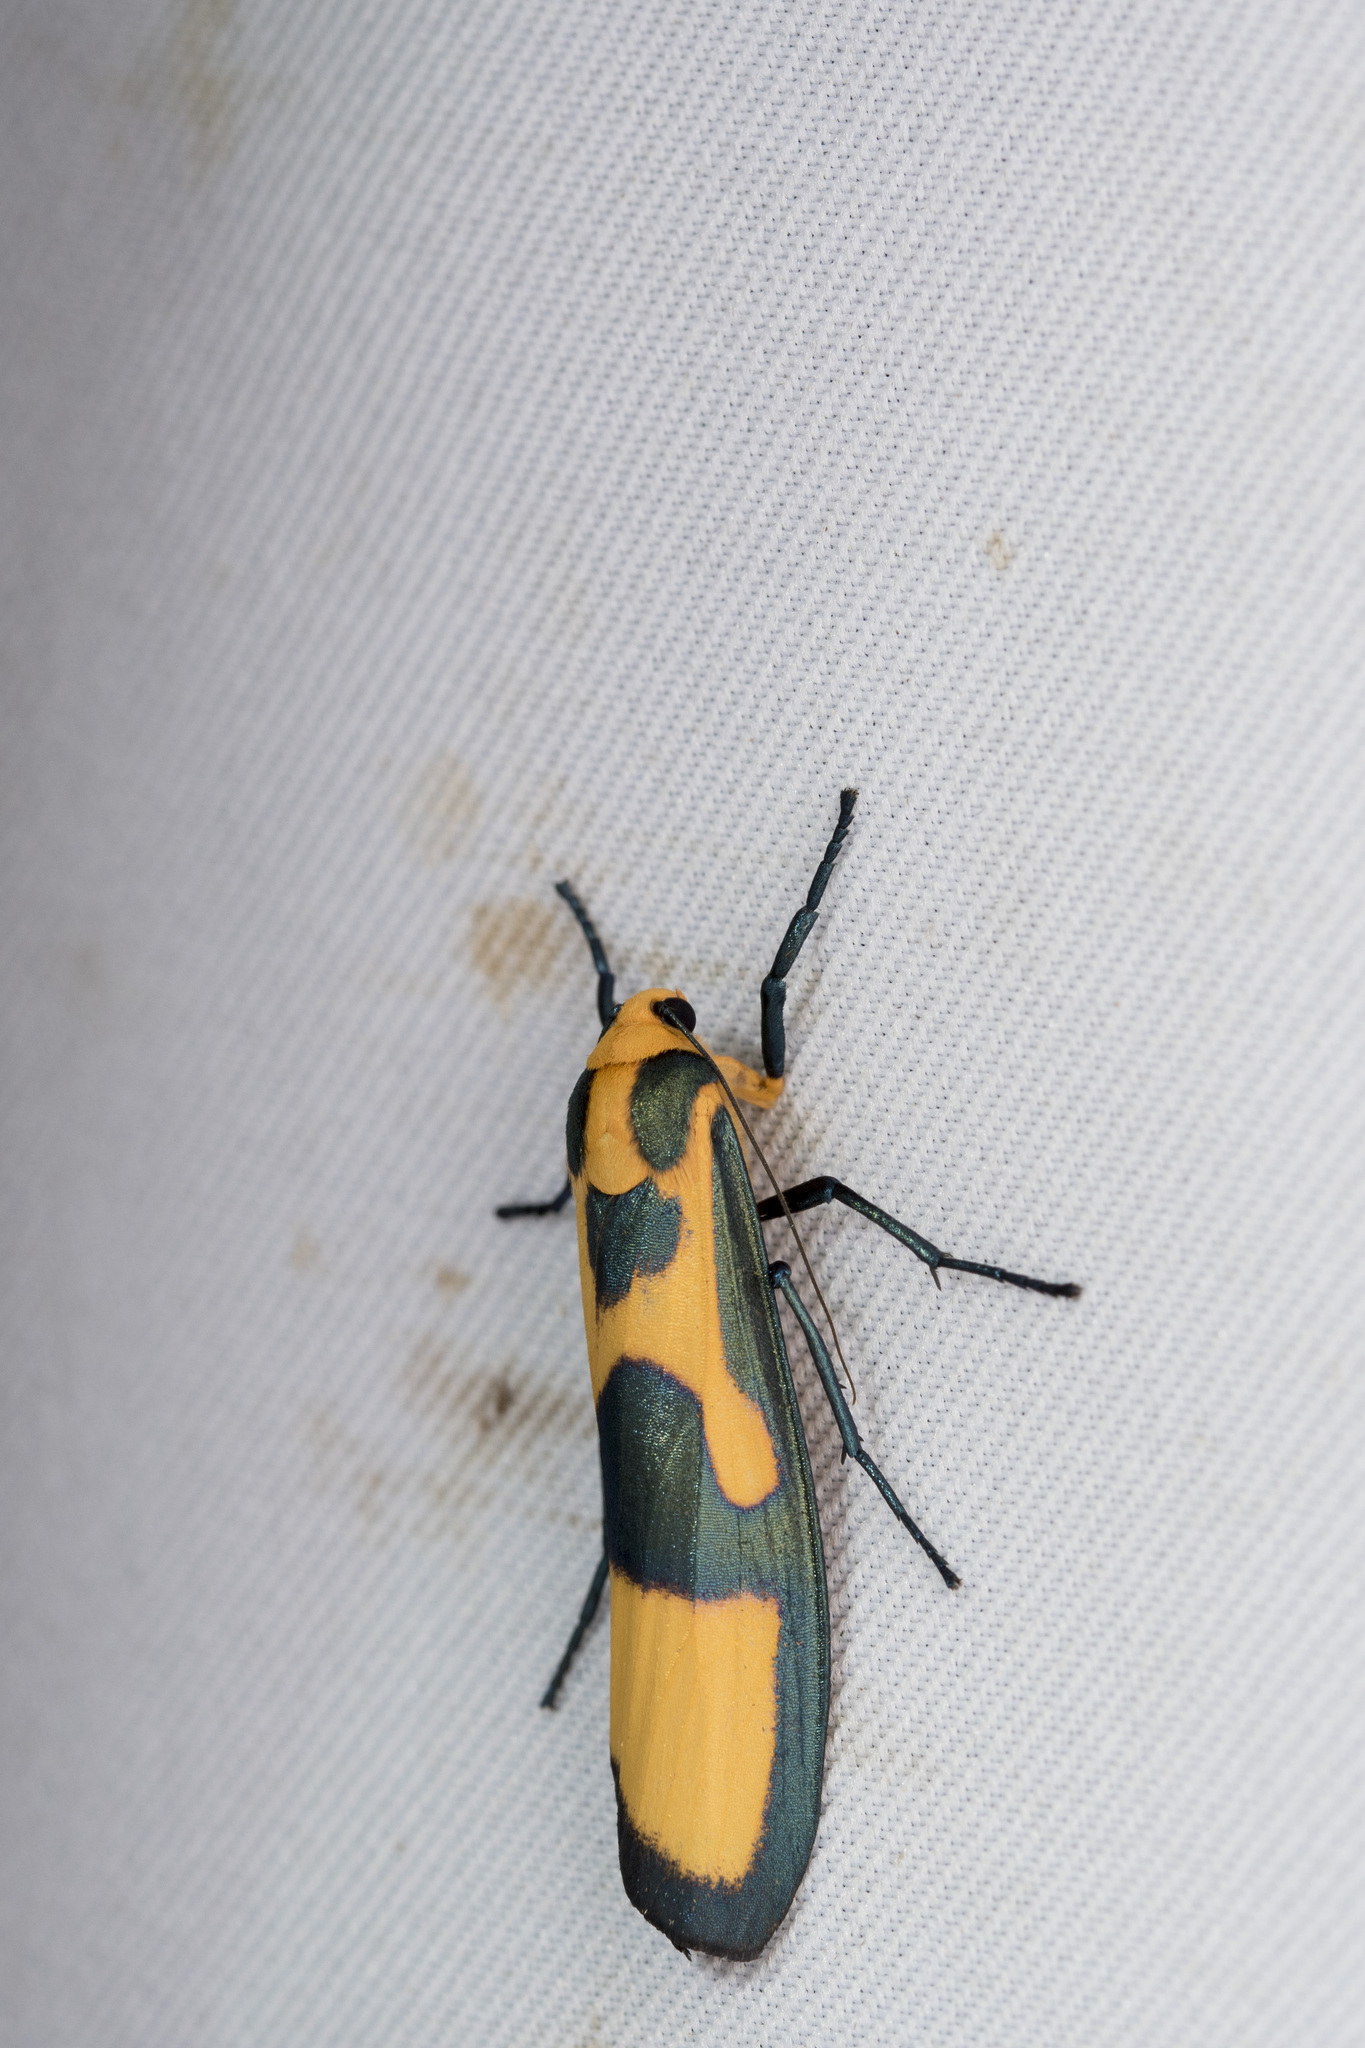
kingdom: Animalia
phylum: Arthropoda
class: Insecta
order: Lepidoptera
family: Erebidae
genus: Chrysaeglia
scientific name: Chrysaeglia magnifica
